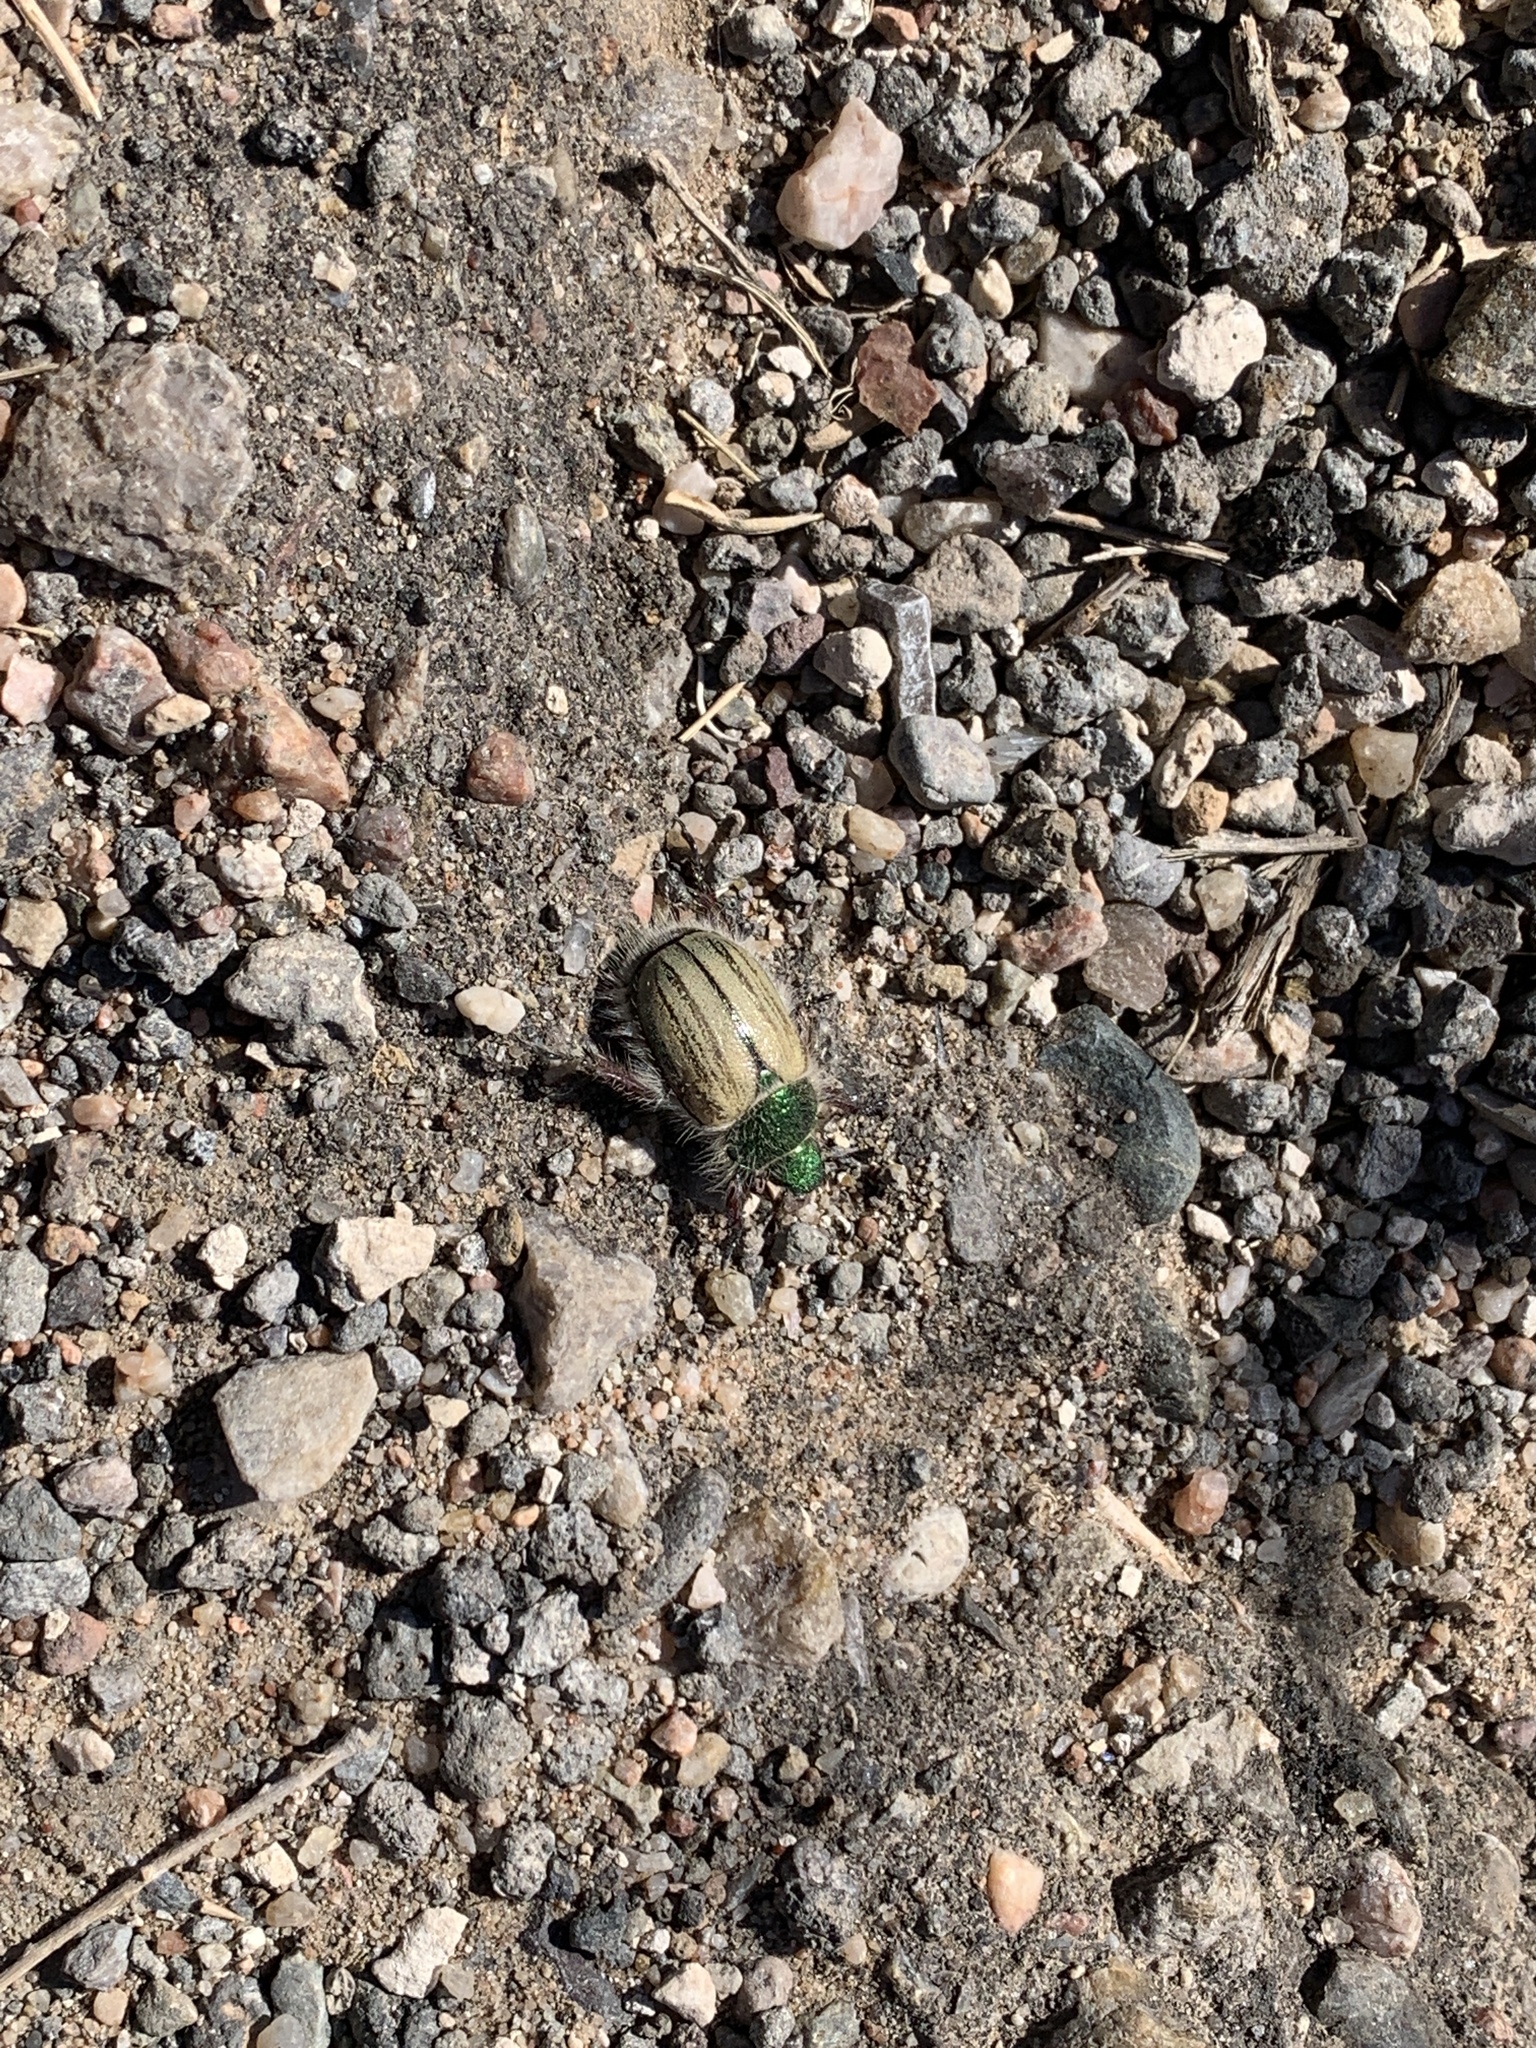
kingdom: Animalia
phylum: Arthropoda
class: Insecta
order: Coleoptera
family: Scarabaeidae
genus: Paracotalpa
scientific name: Paracotalpa puncticollis
